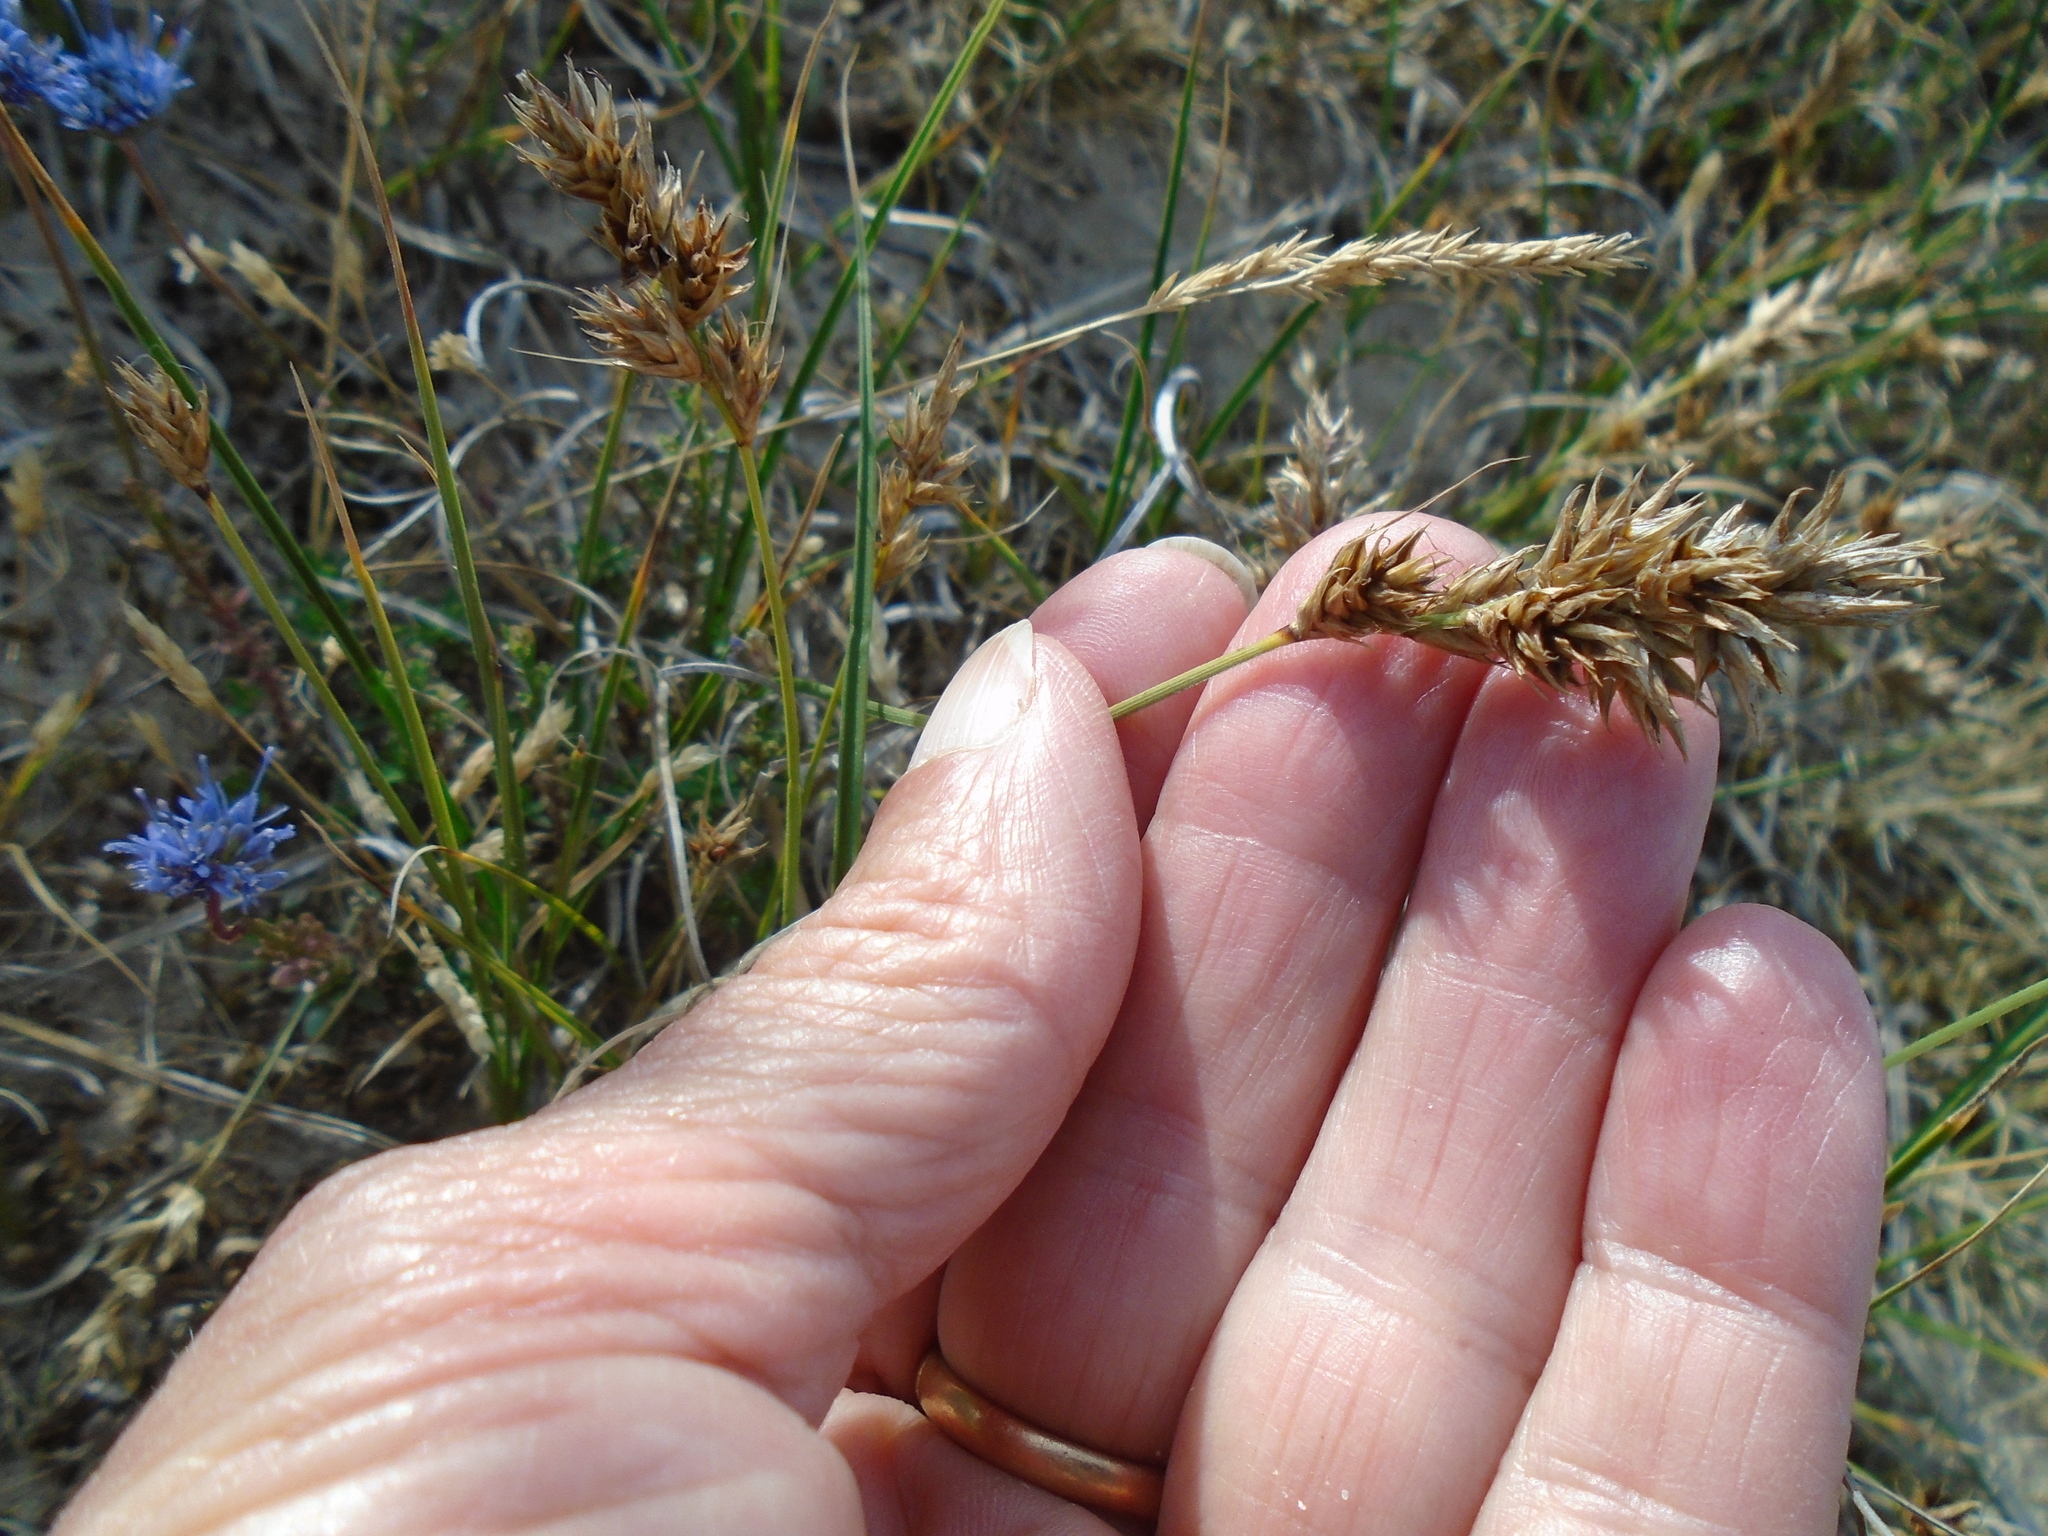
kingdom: Plantae
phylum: Tracheophyta
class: Liliopsida
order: Poales
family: Cyperaceae
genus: Carex
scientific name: Carex arenaria
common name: Sand sedge
